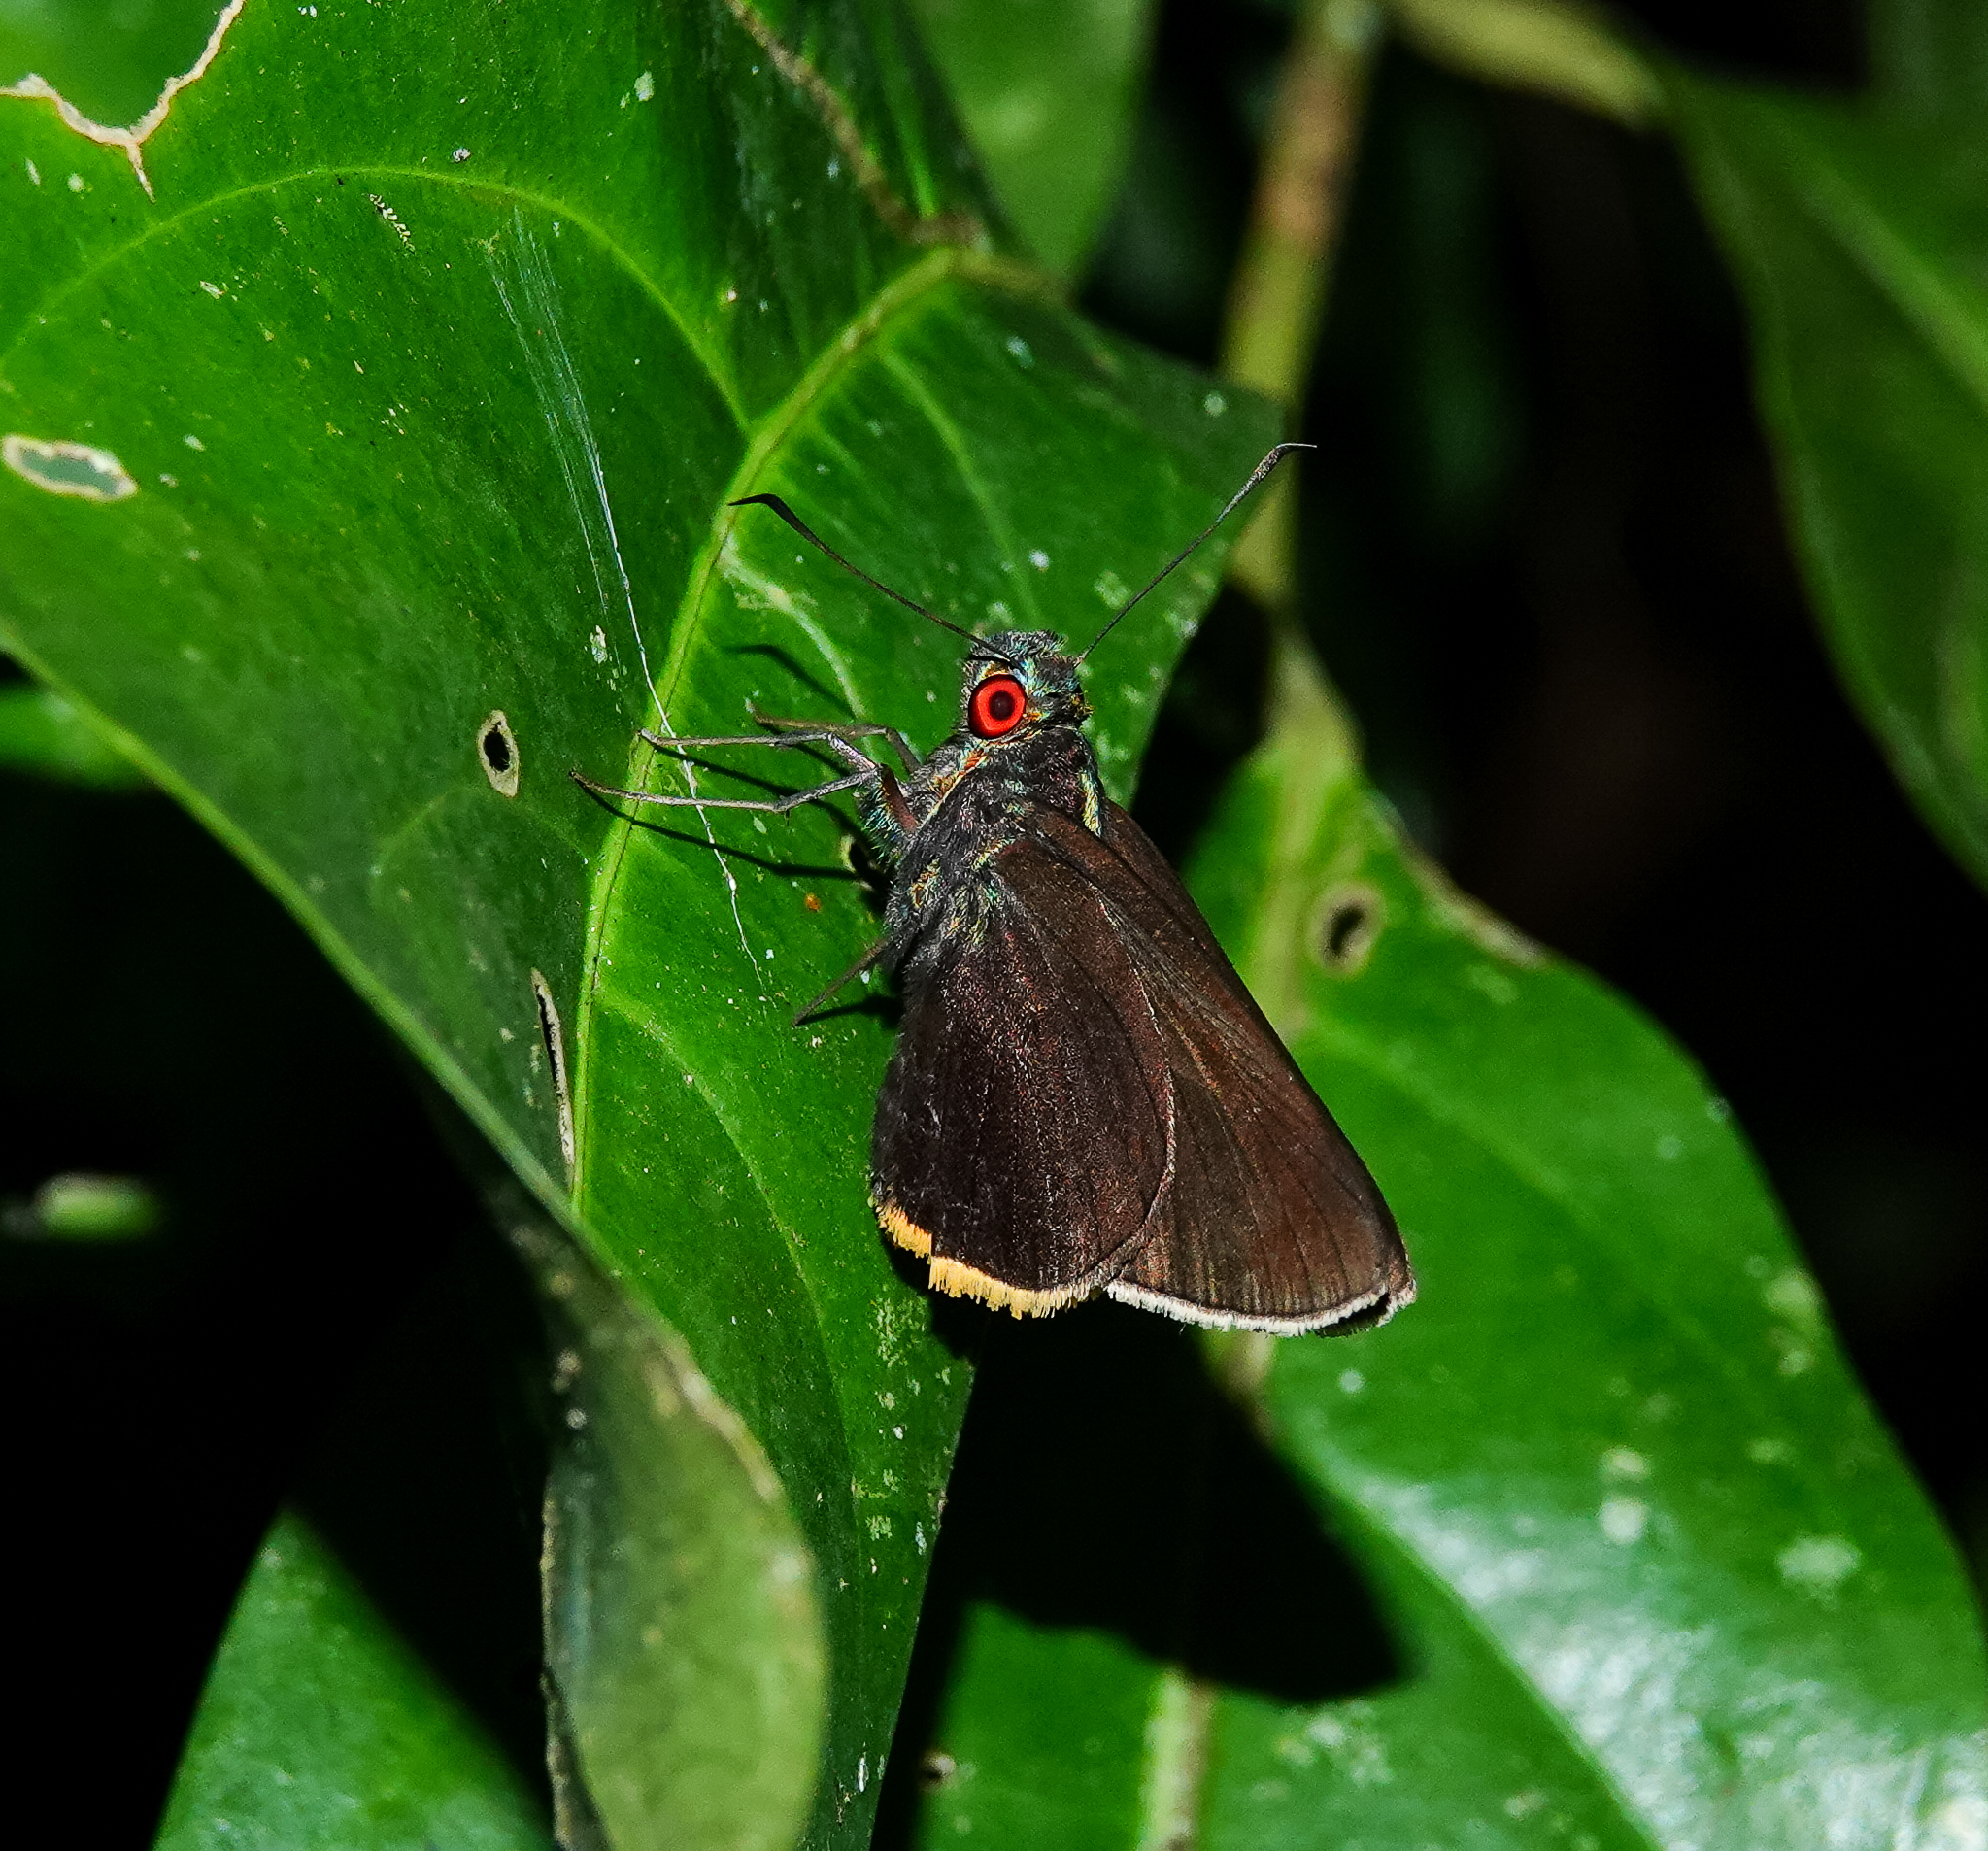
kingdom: Animalia
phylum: Arthropoda
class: Insecta
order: Lepidoptera
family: Hesperiidae
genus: Matapa
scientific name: Matapa sasivarna
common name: Black-veined redeye
